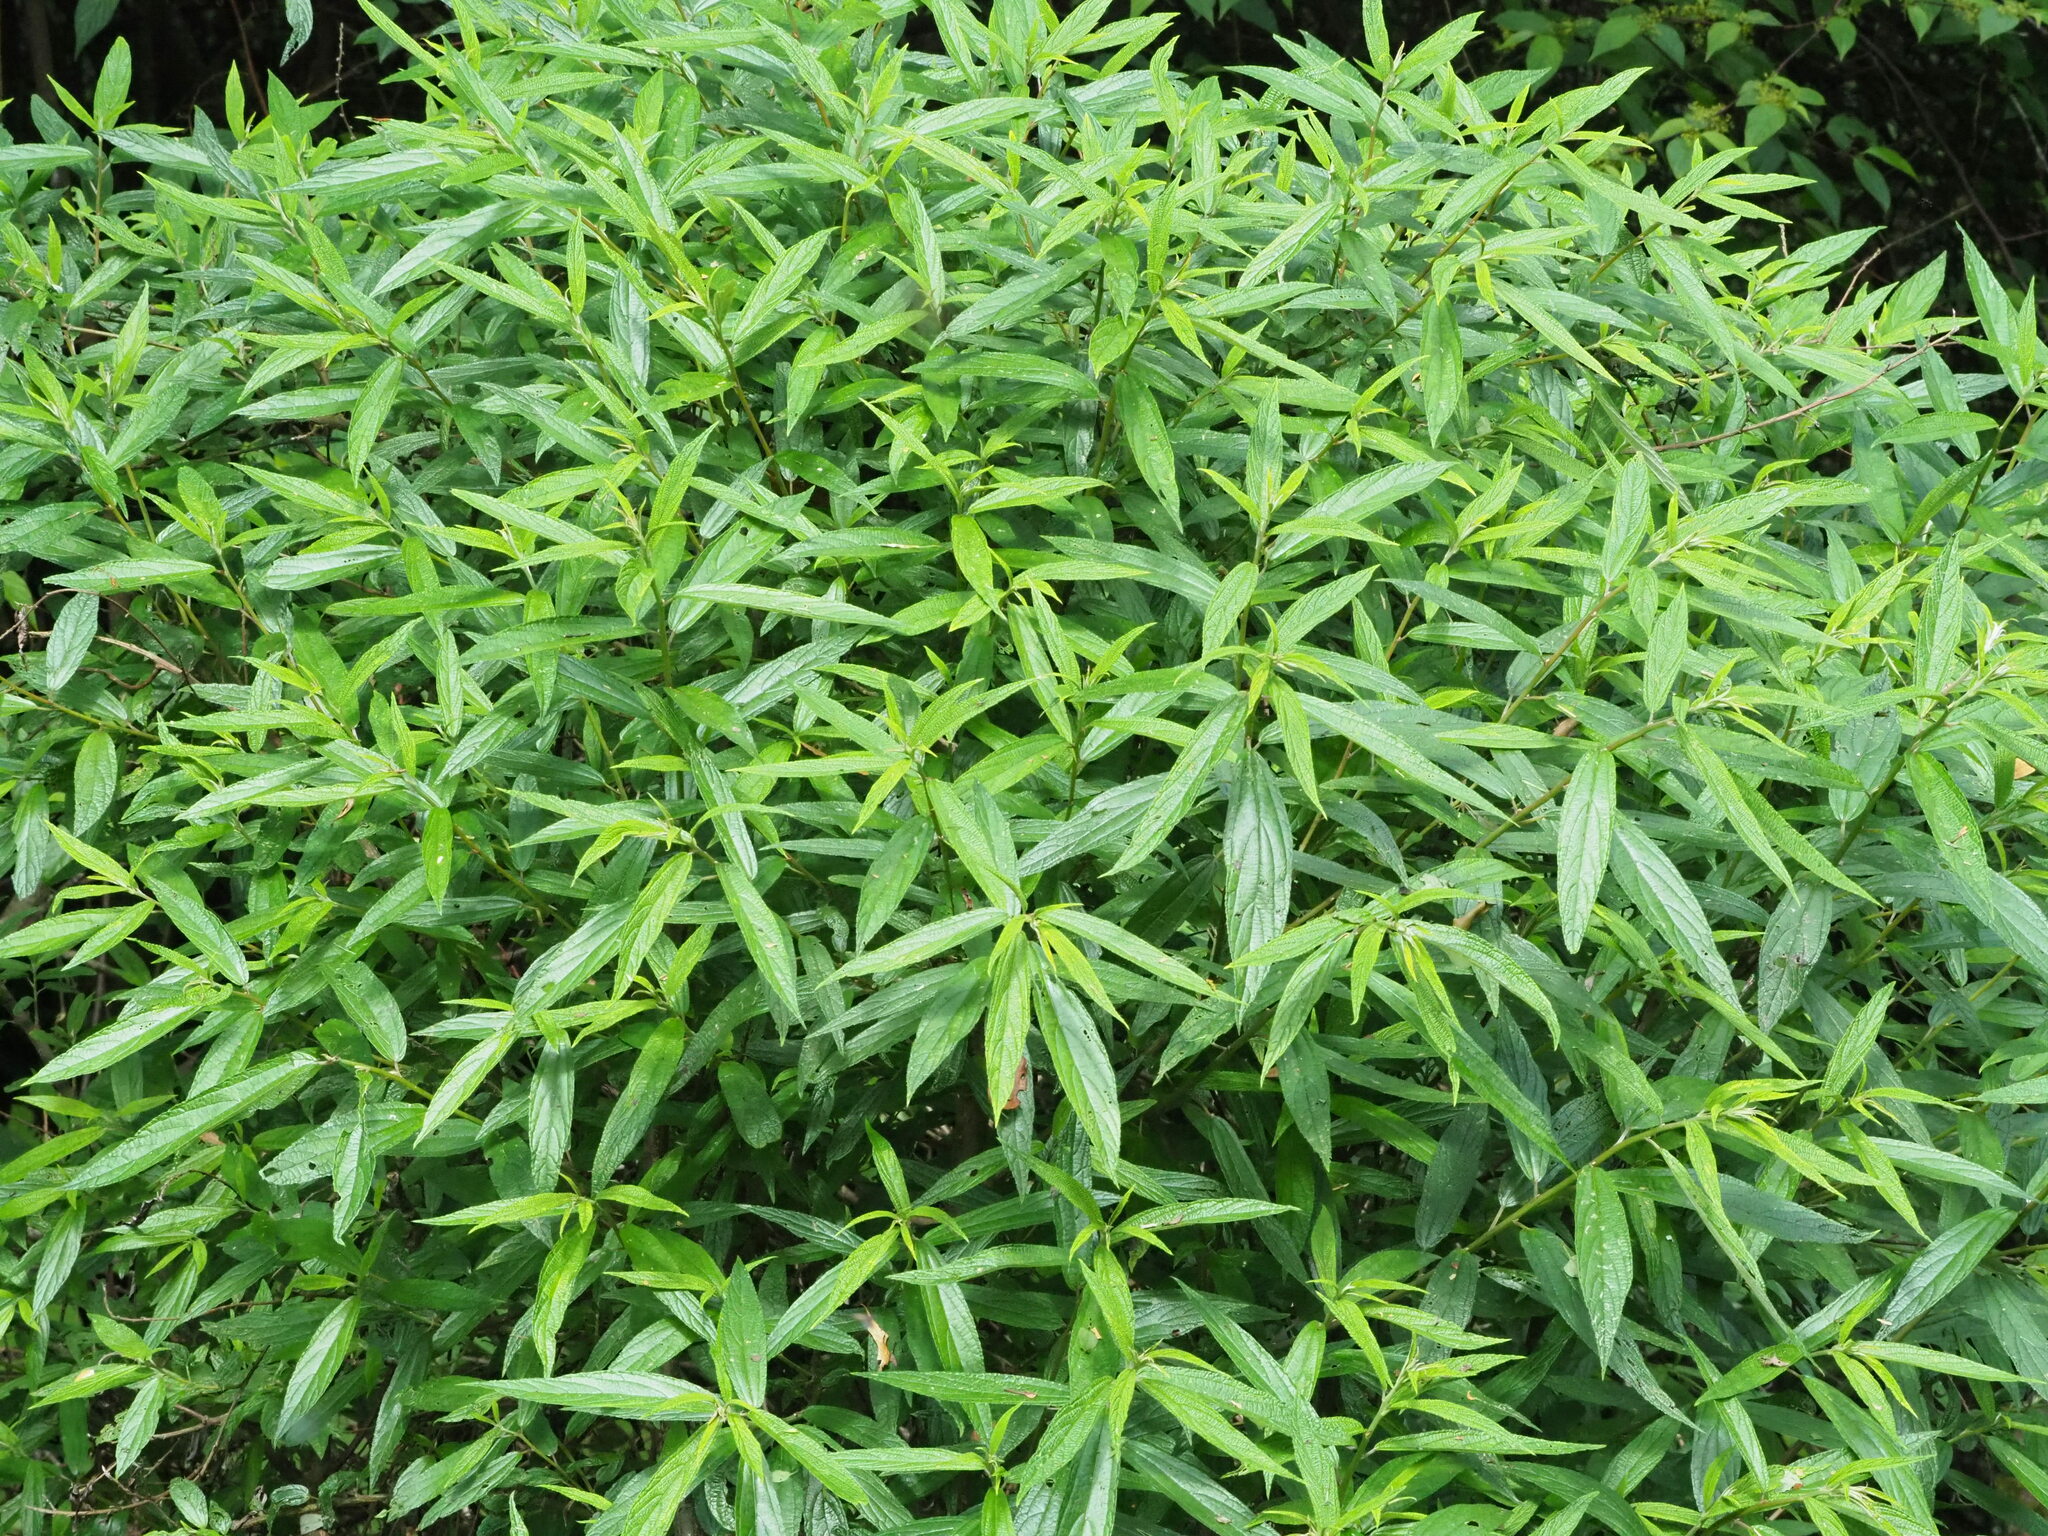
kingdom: Plantae
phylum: Tracheophyta
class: Magnoliopsida
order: Rosales
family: Urticaceae
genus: Debregeasia
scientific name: Debregeasia orientalis
